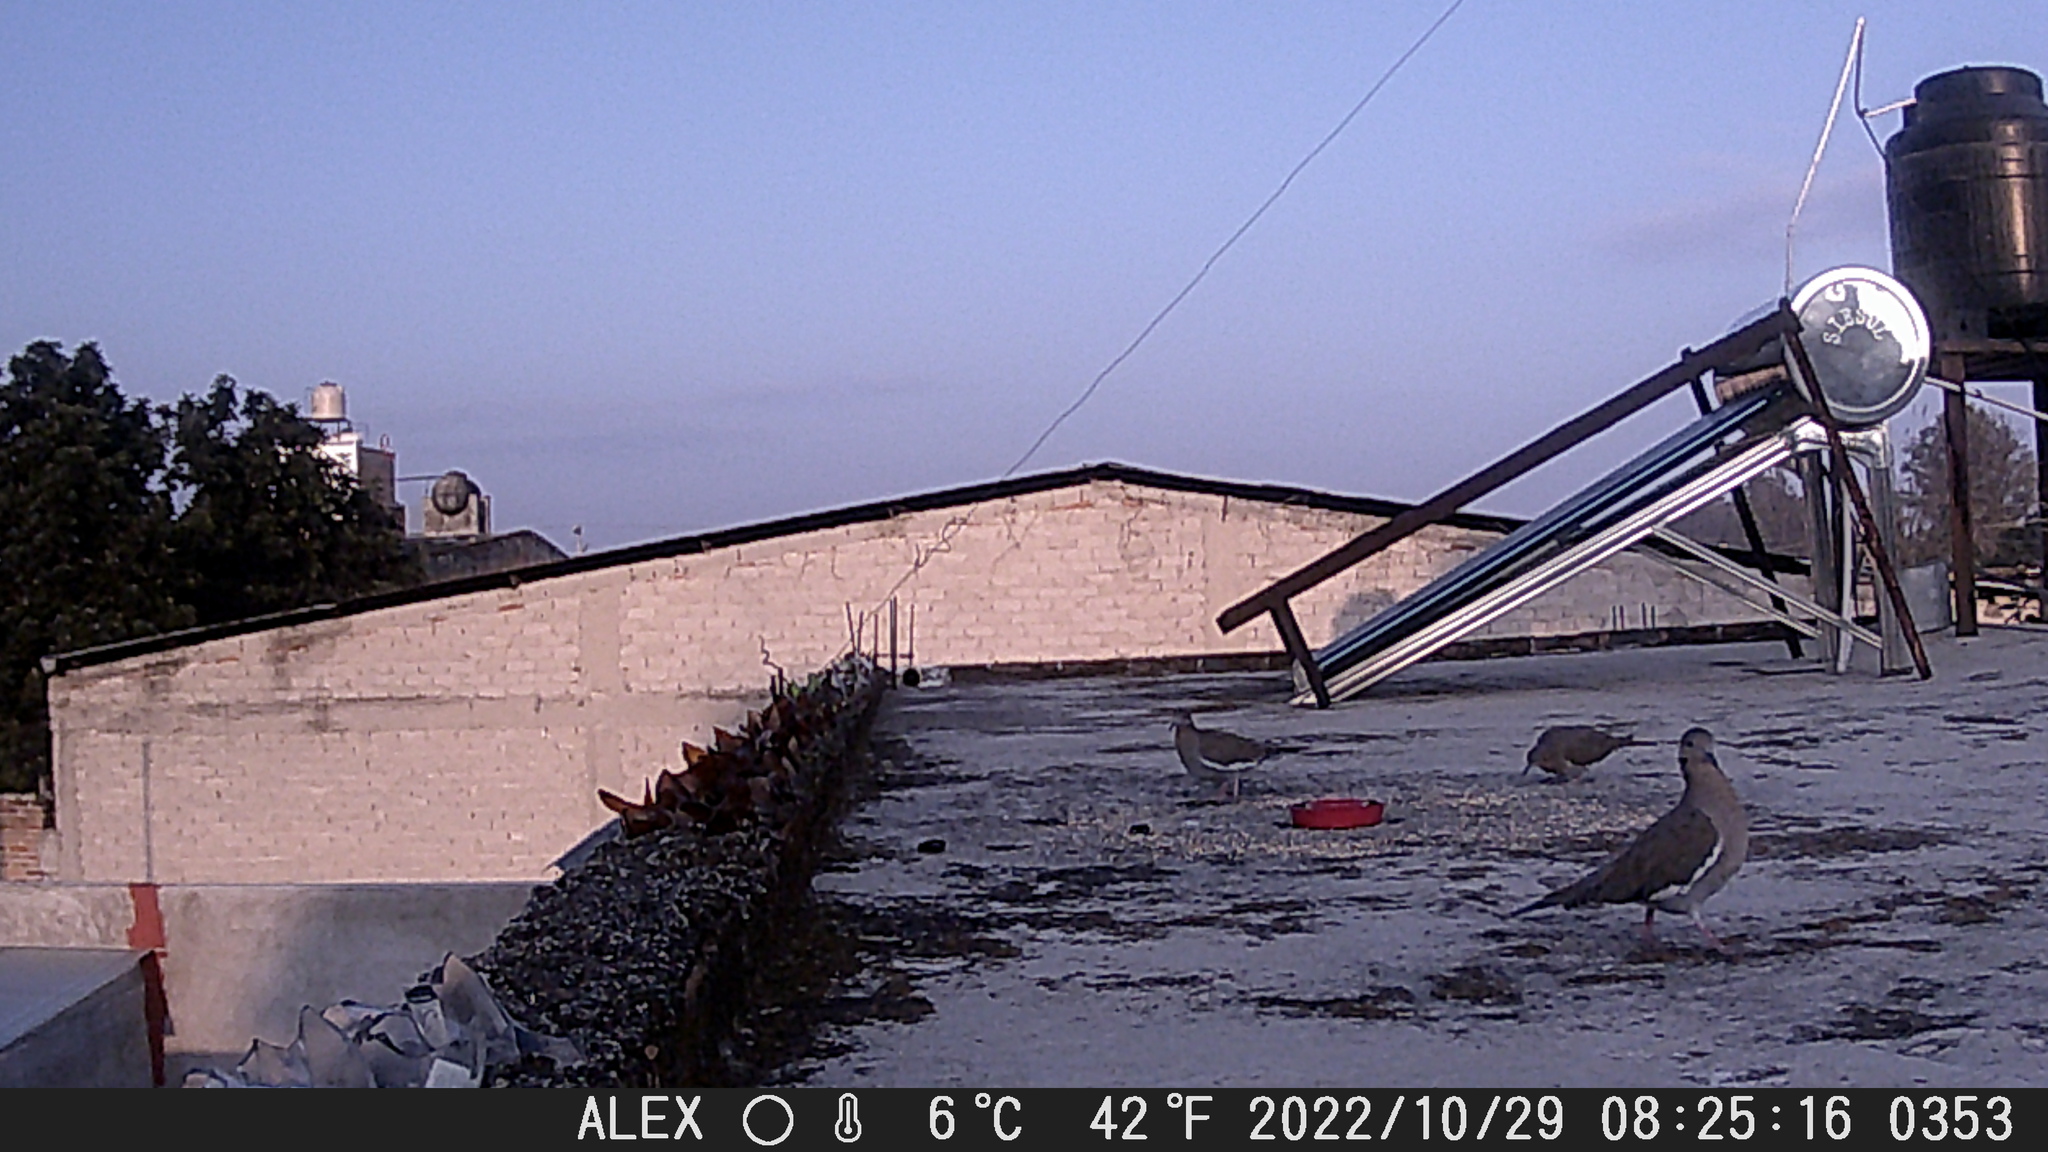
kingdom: Animalia
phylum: Chordata
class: Aves
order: Columbiformes
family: Columbidae
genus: Zenaida
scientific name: Zenaida asiatica
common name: White-winged dove
